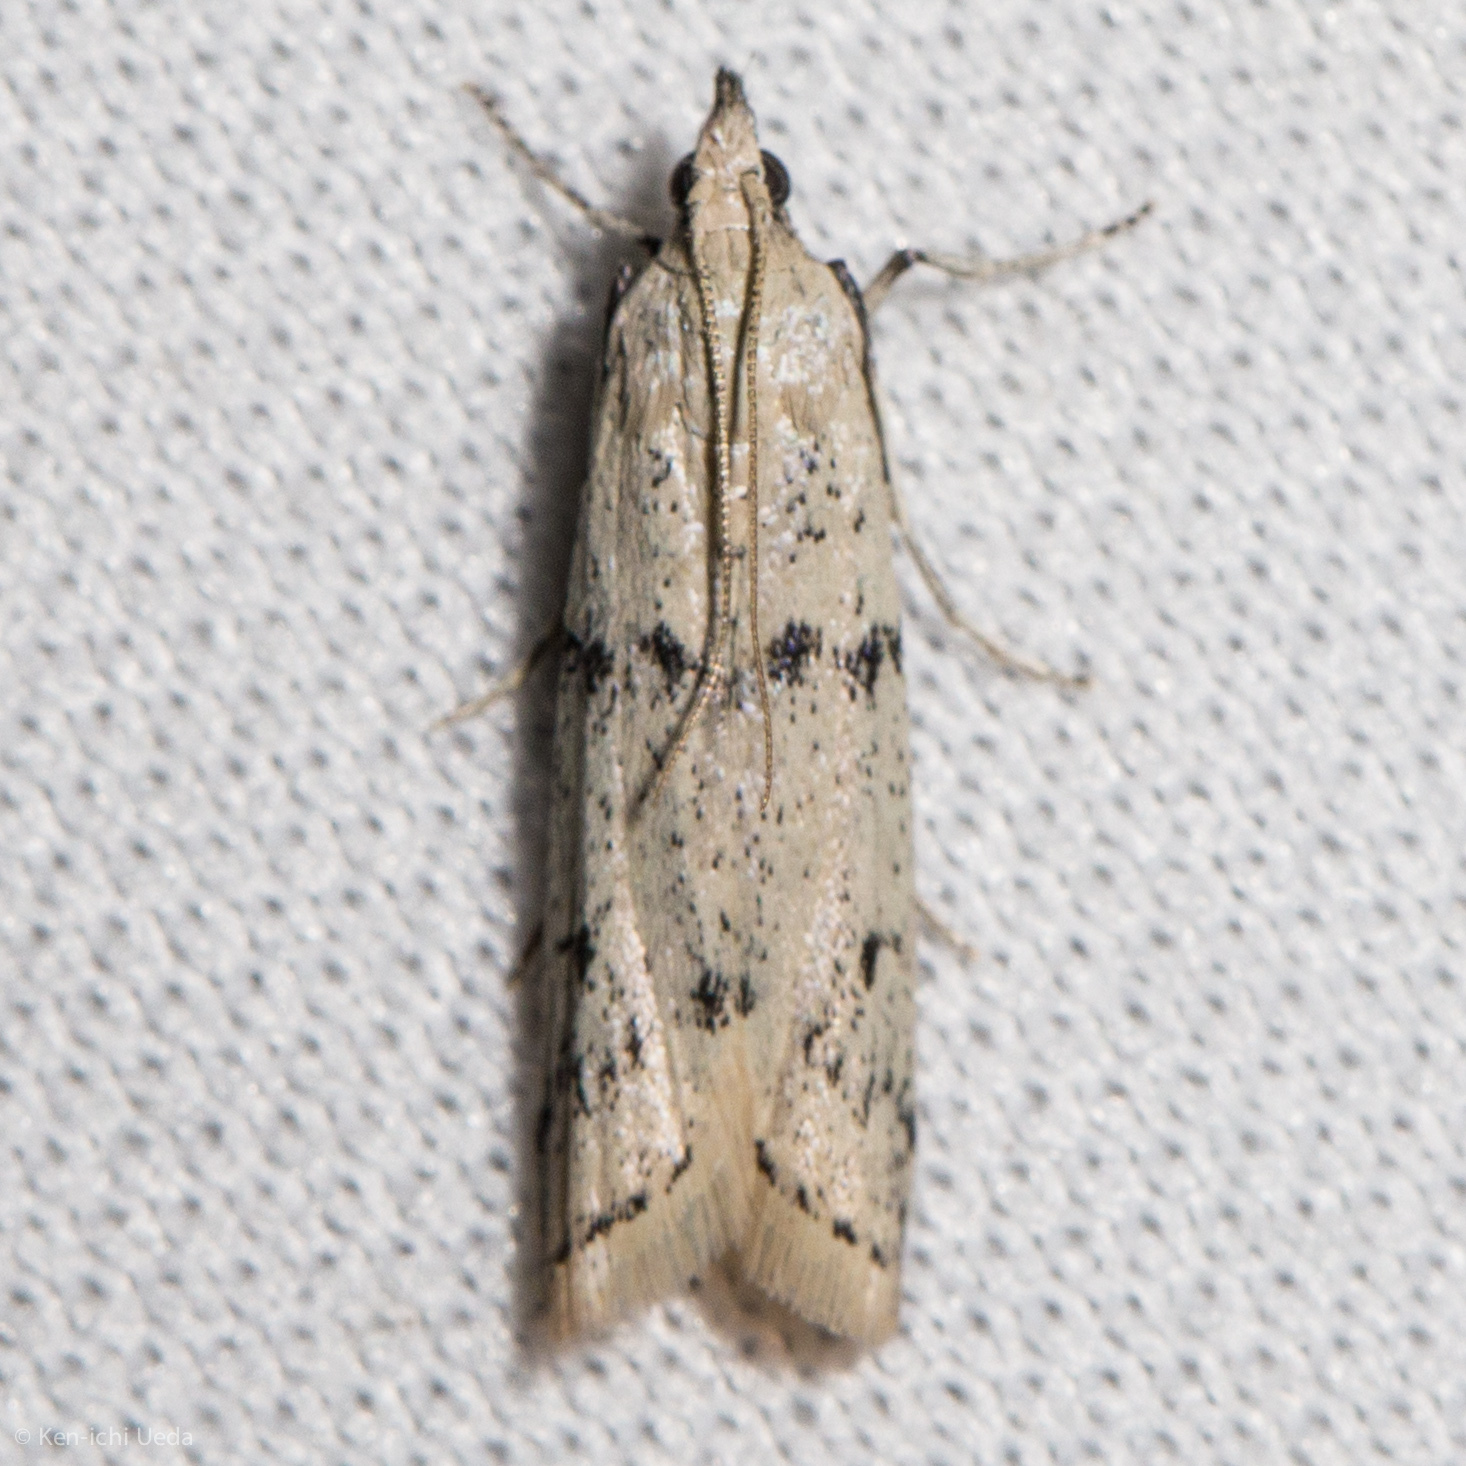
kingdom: Animalia
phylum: Arthropoda
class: Insecta
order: Lepidoptera
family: Pyralidae
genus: Sosipatra
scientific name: Sosipatra rileyella
